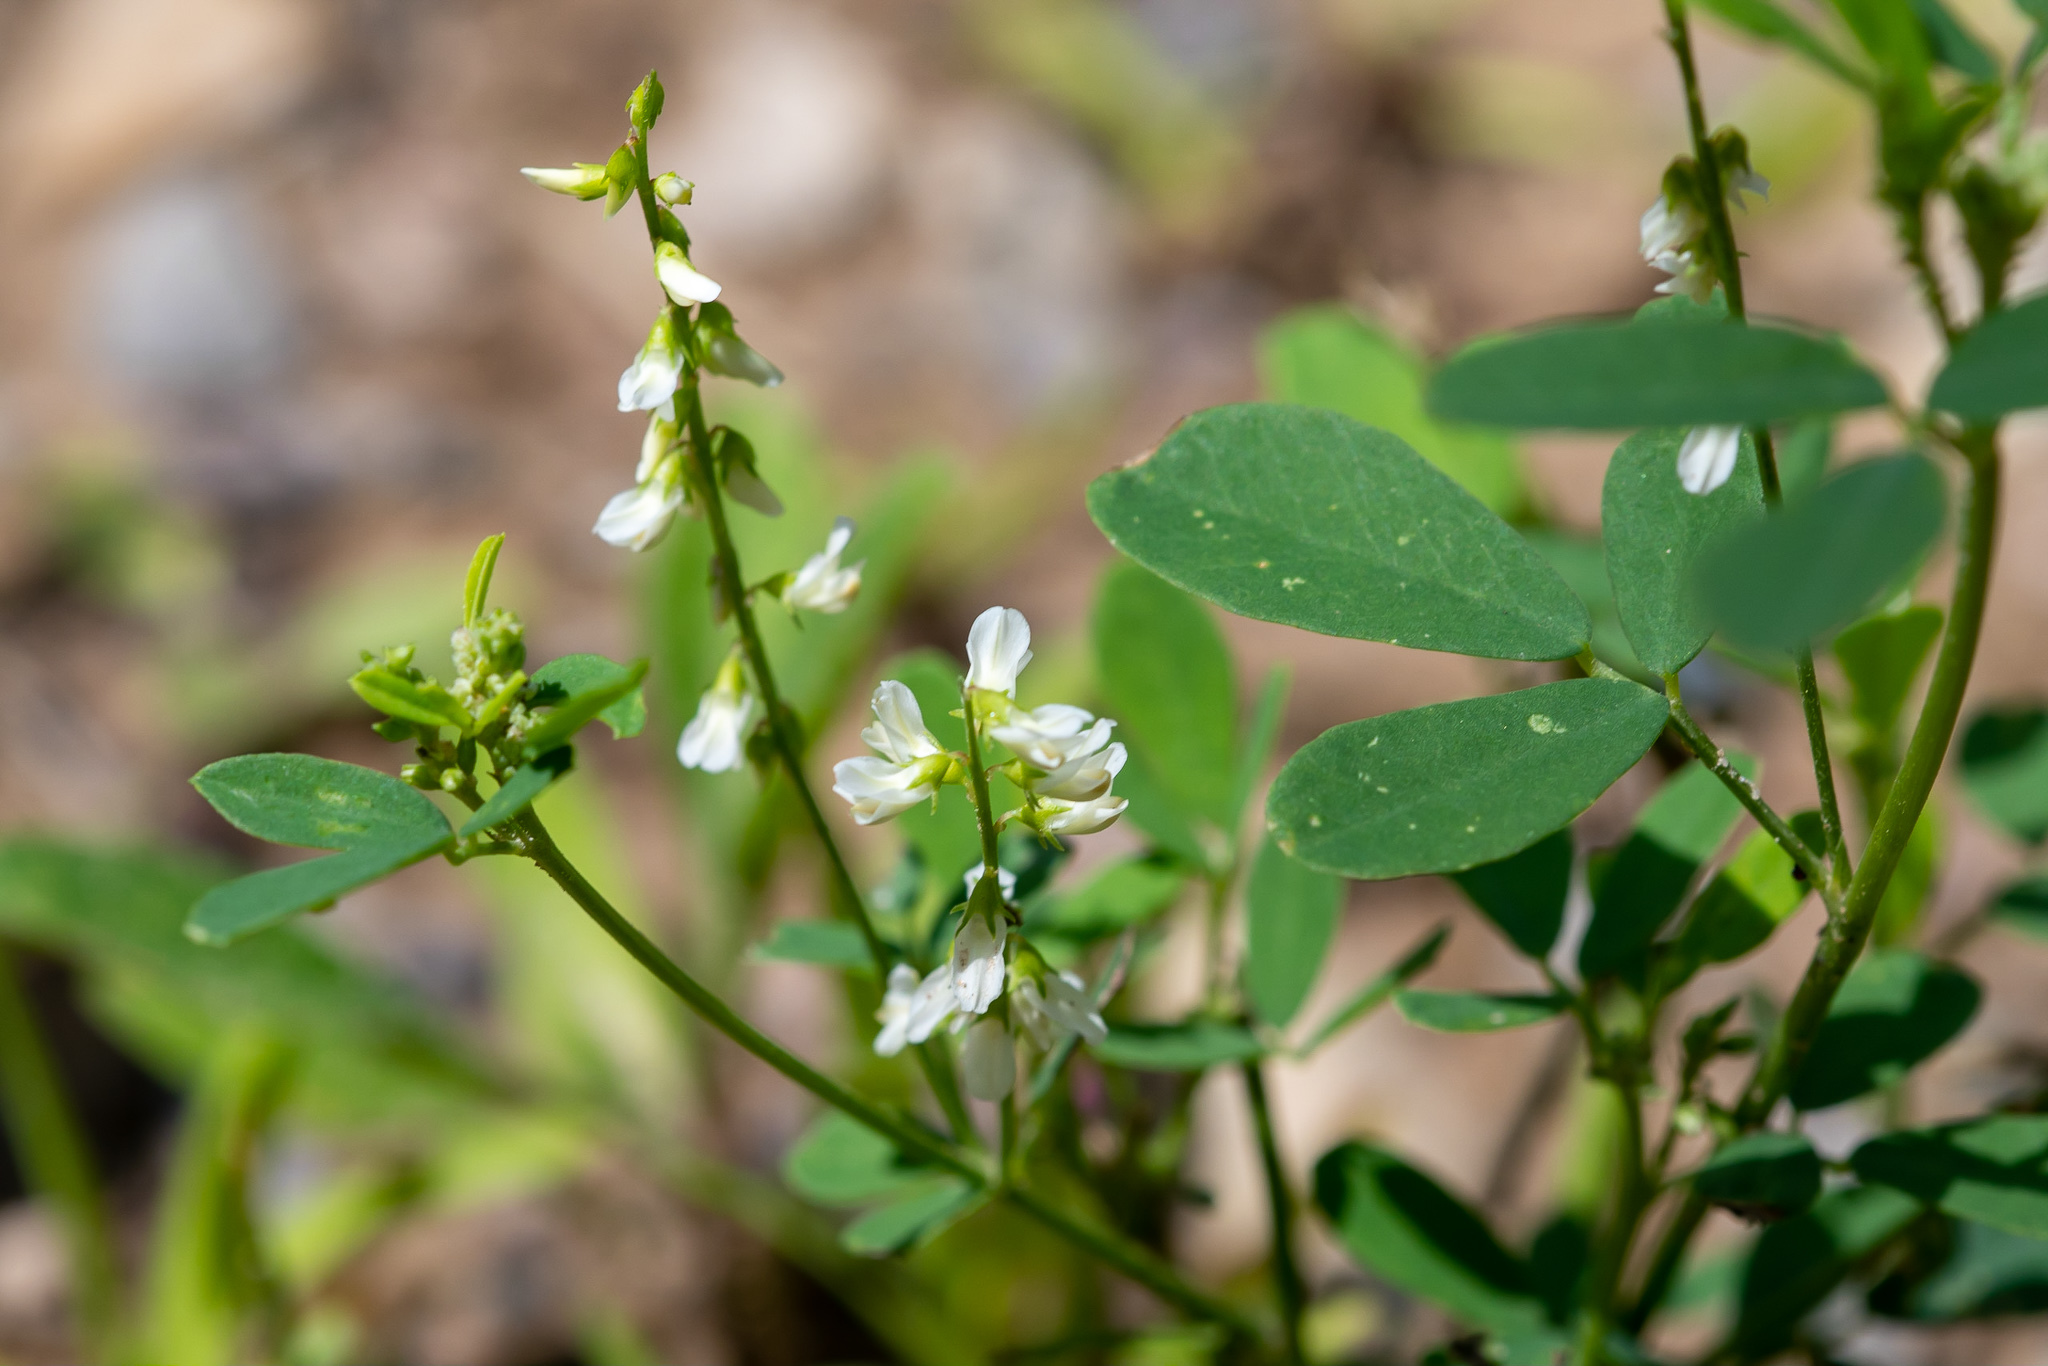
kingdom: Plantae
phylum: Tracheophyta
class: Magnoliopsida
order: Fabales
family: Fabaceae
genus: Melilotus
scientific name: Melilotus albus
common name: White melilot
